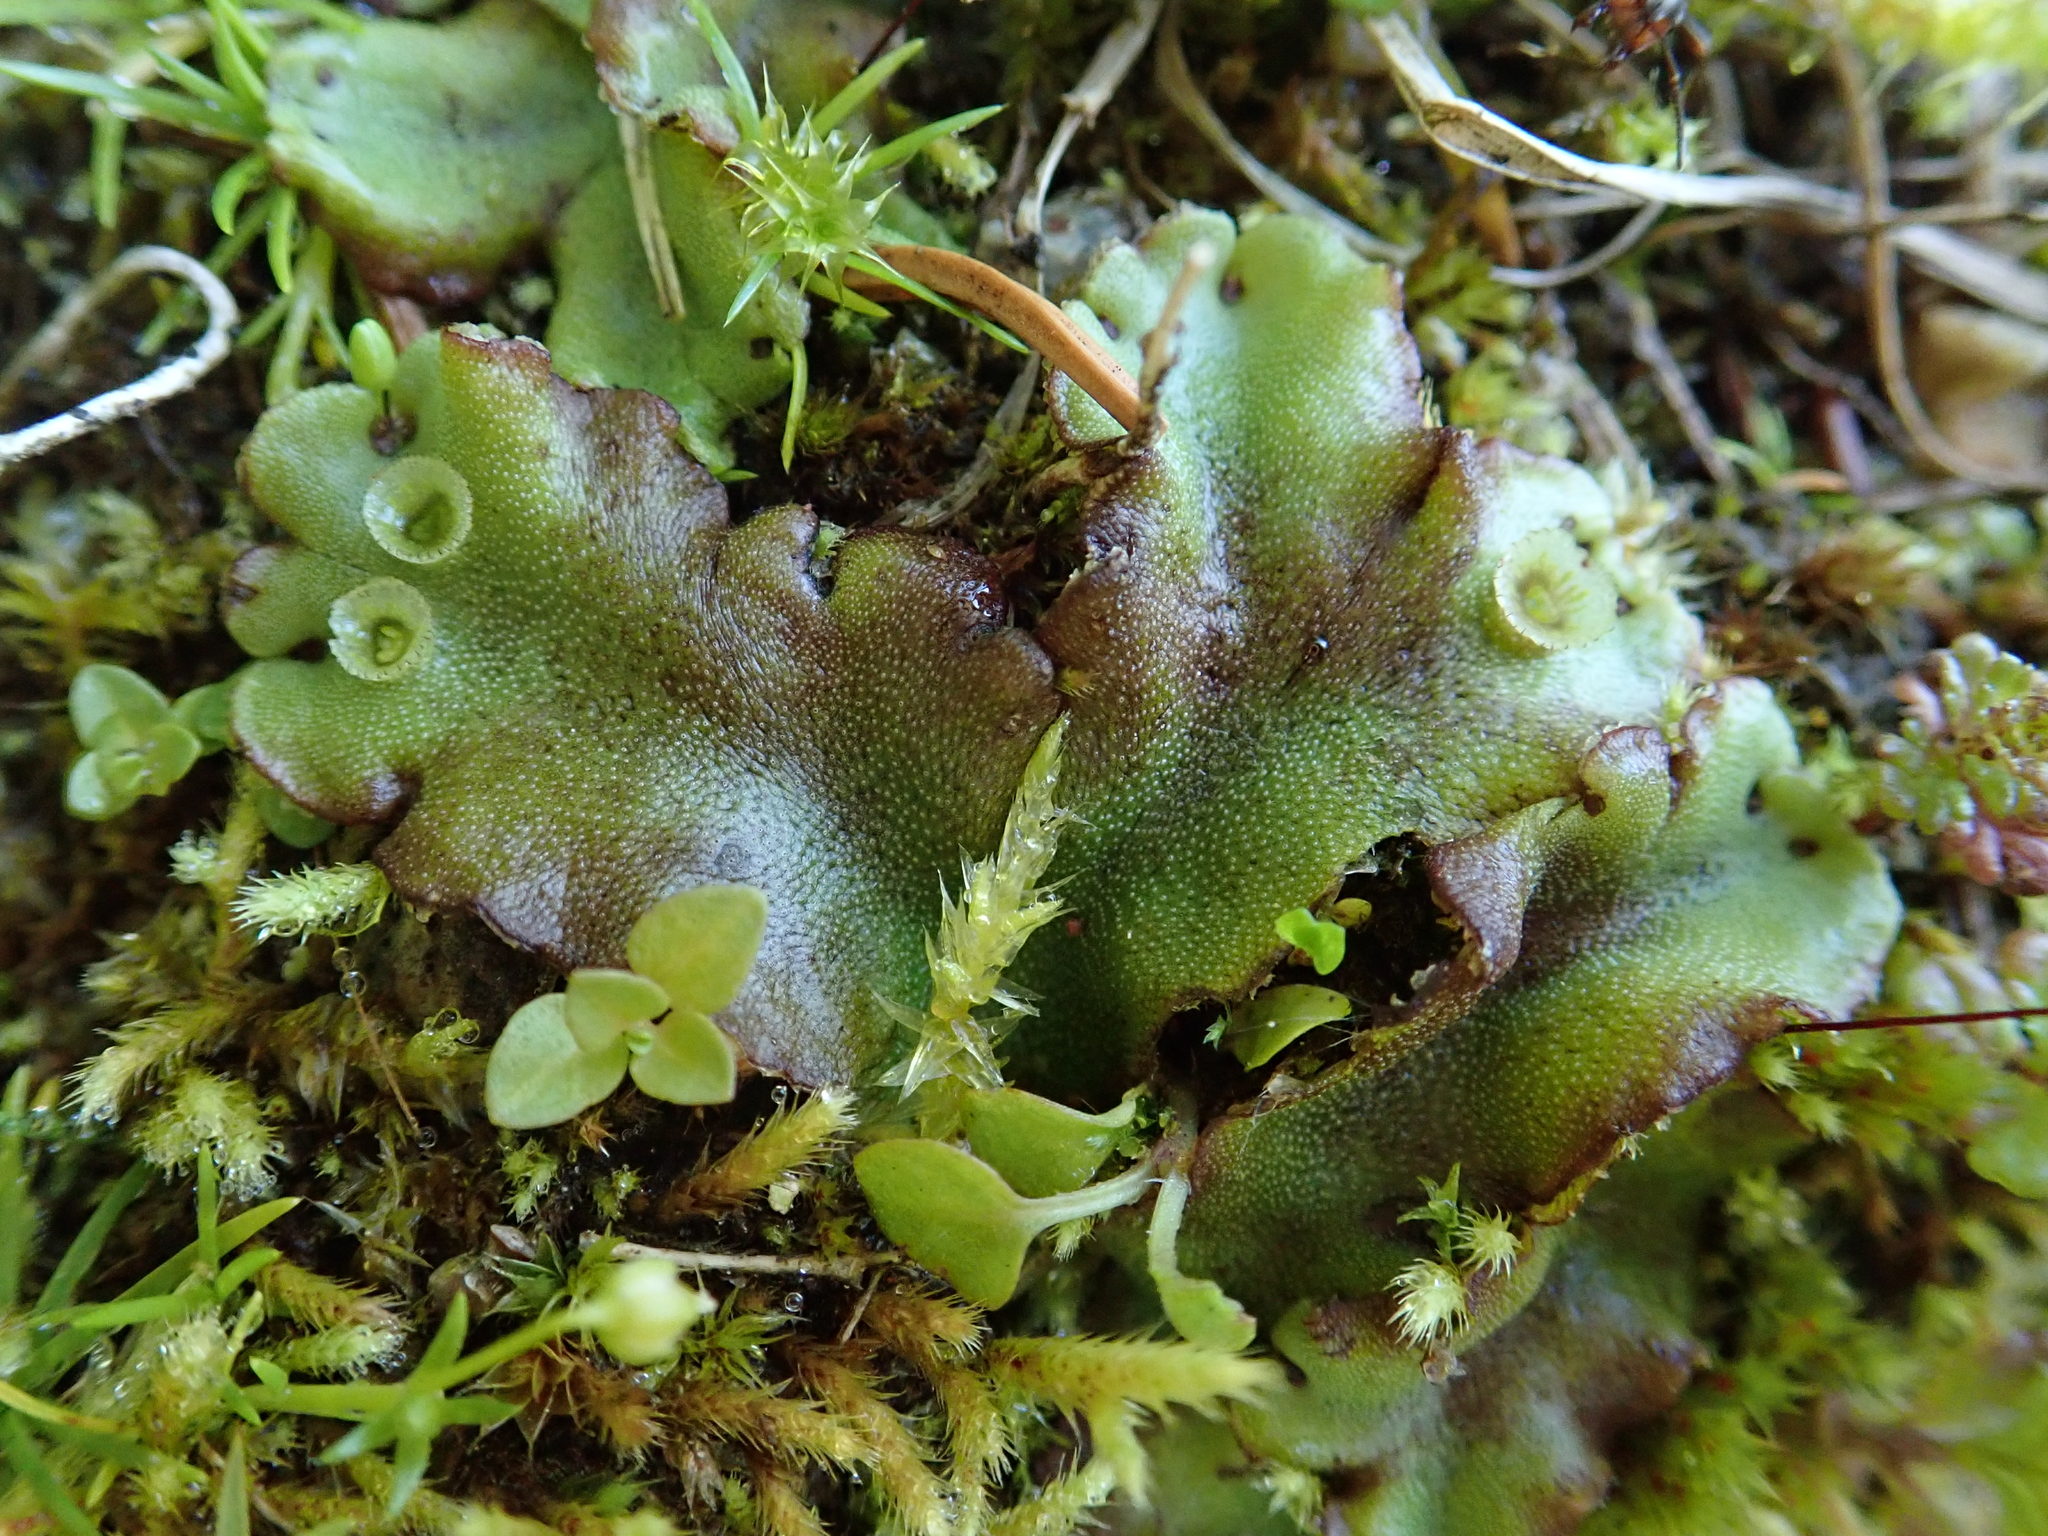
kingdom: Plantae
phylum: Marchantiophyta
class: Marchantiopsida
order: Marchantiales
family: Marchantiaceae
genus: Marchantia
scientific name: Marchantia polymorpha
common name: Common liverwort
